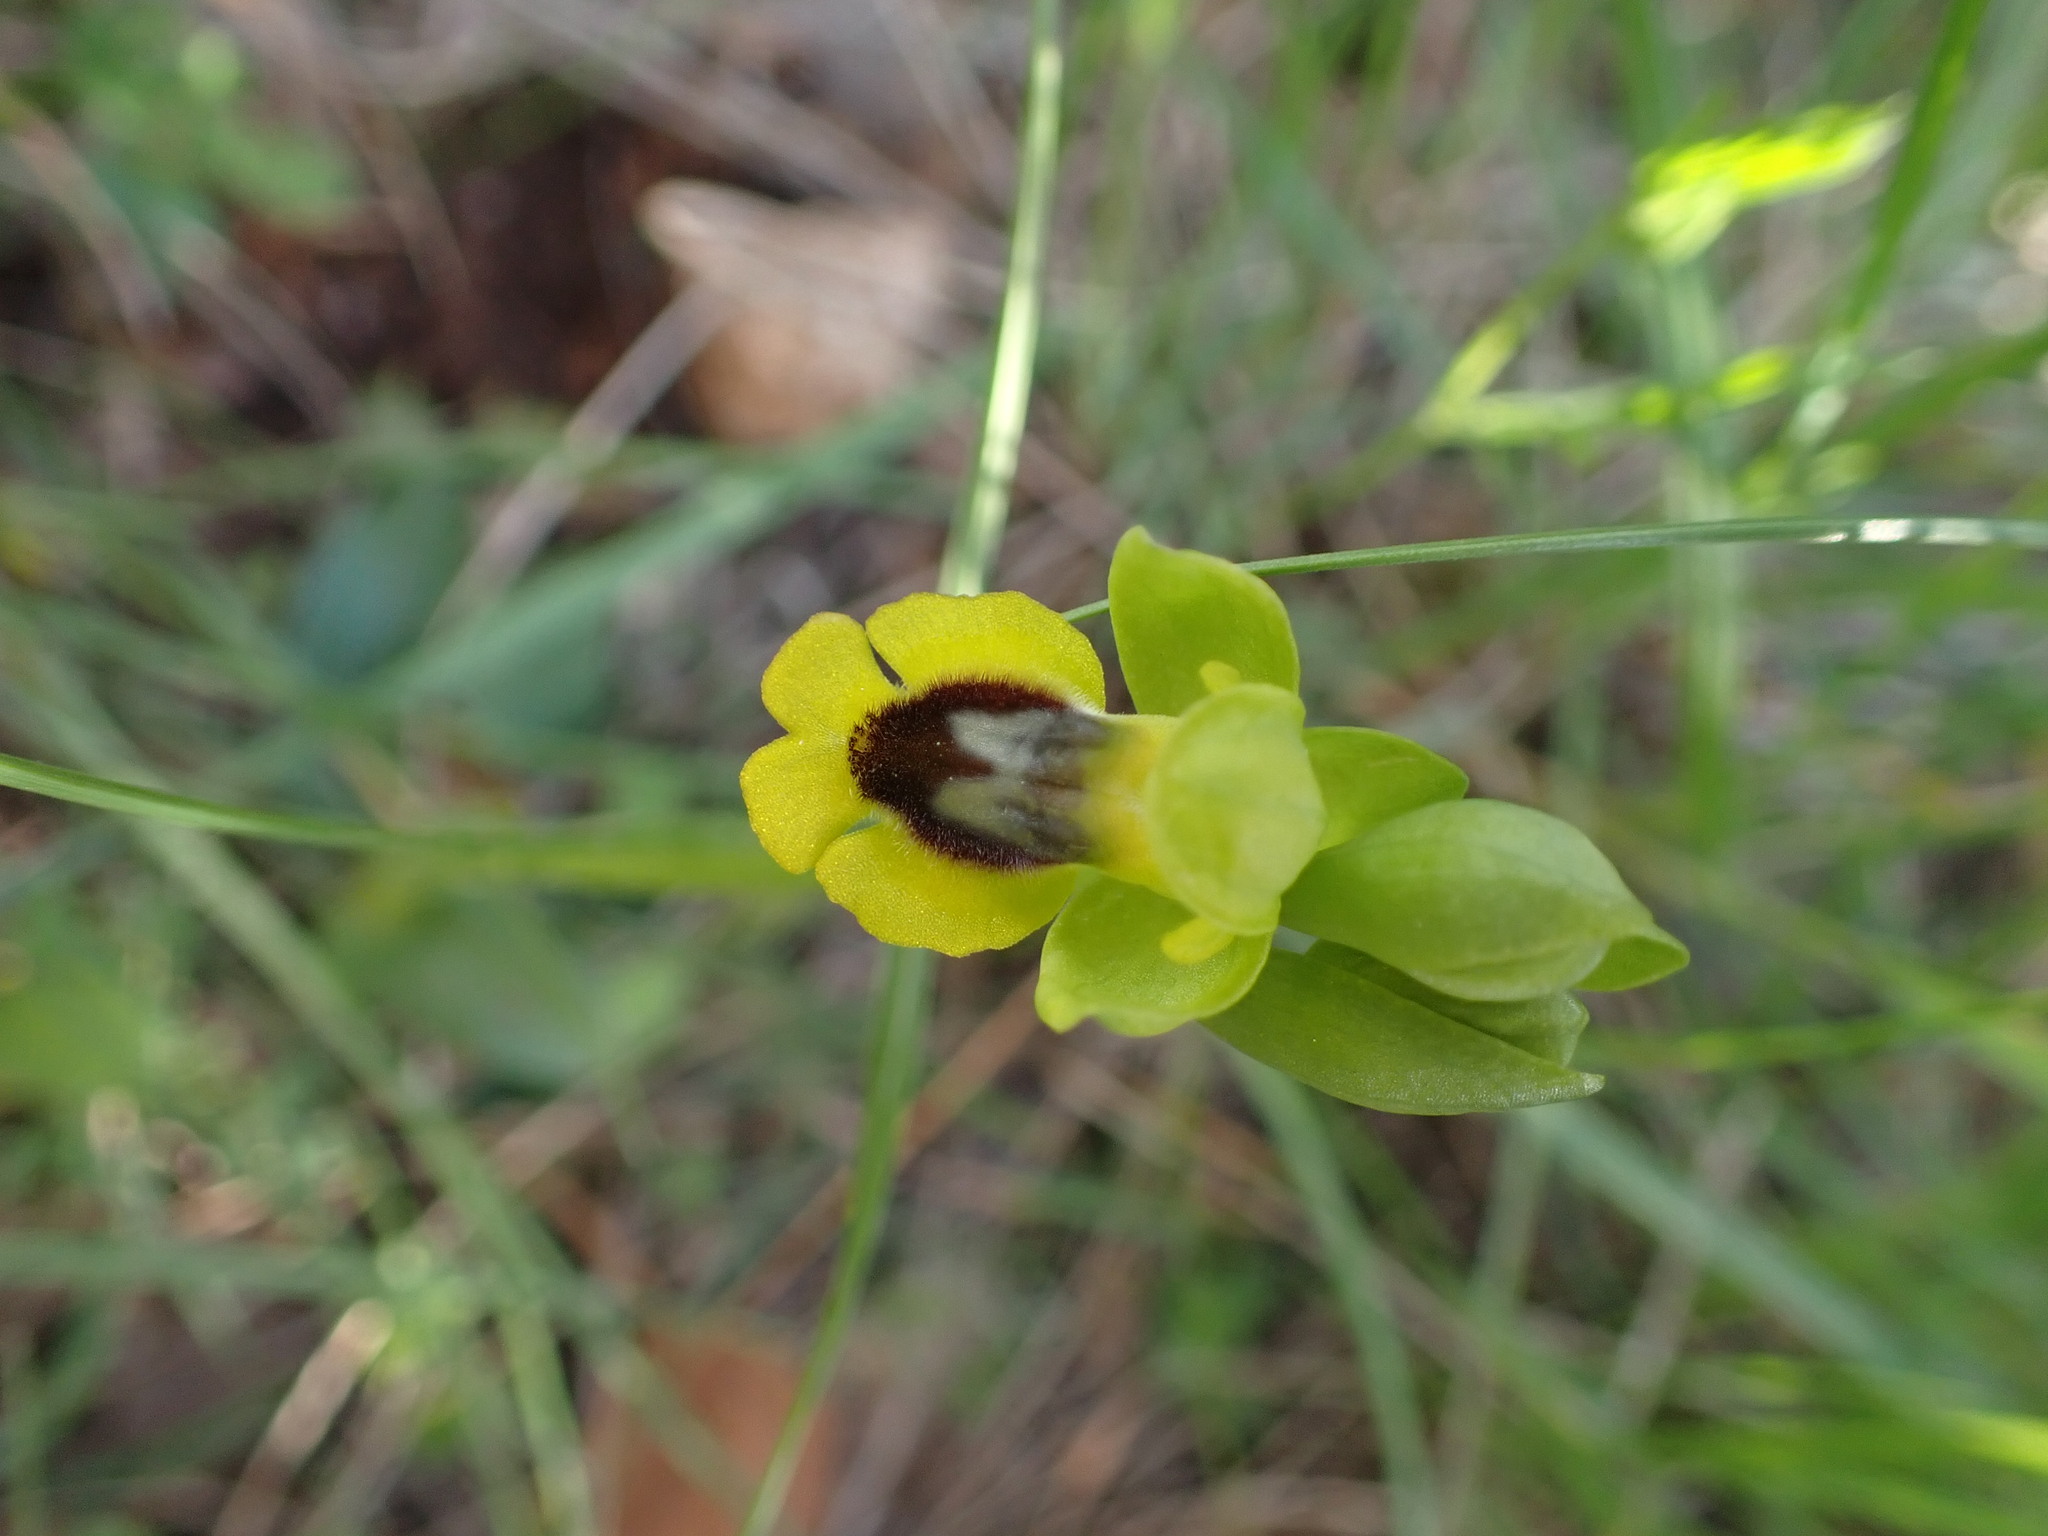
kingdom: Plantae
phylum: Tracheophyta
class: Liliopsida
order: Asparagales
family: Orchidaceae
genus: Ophrys
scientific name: Ophrys lutea
